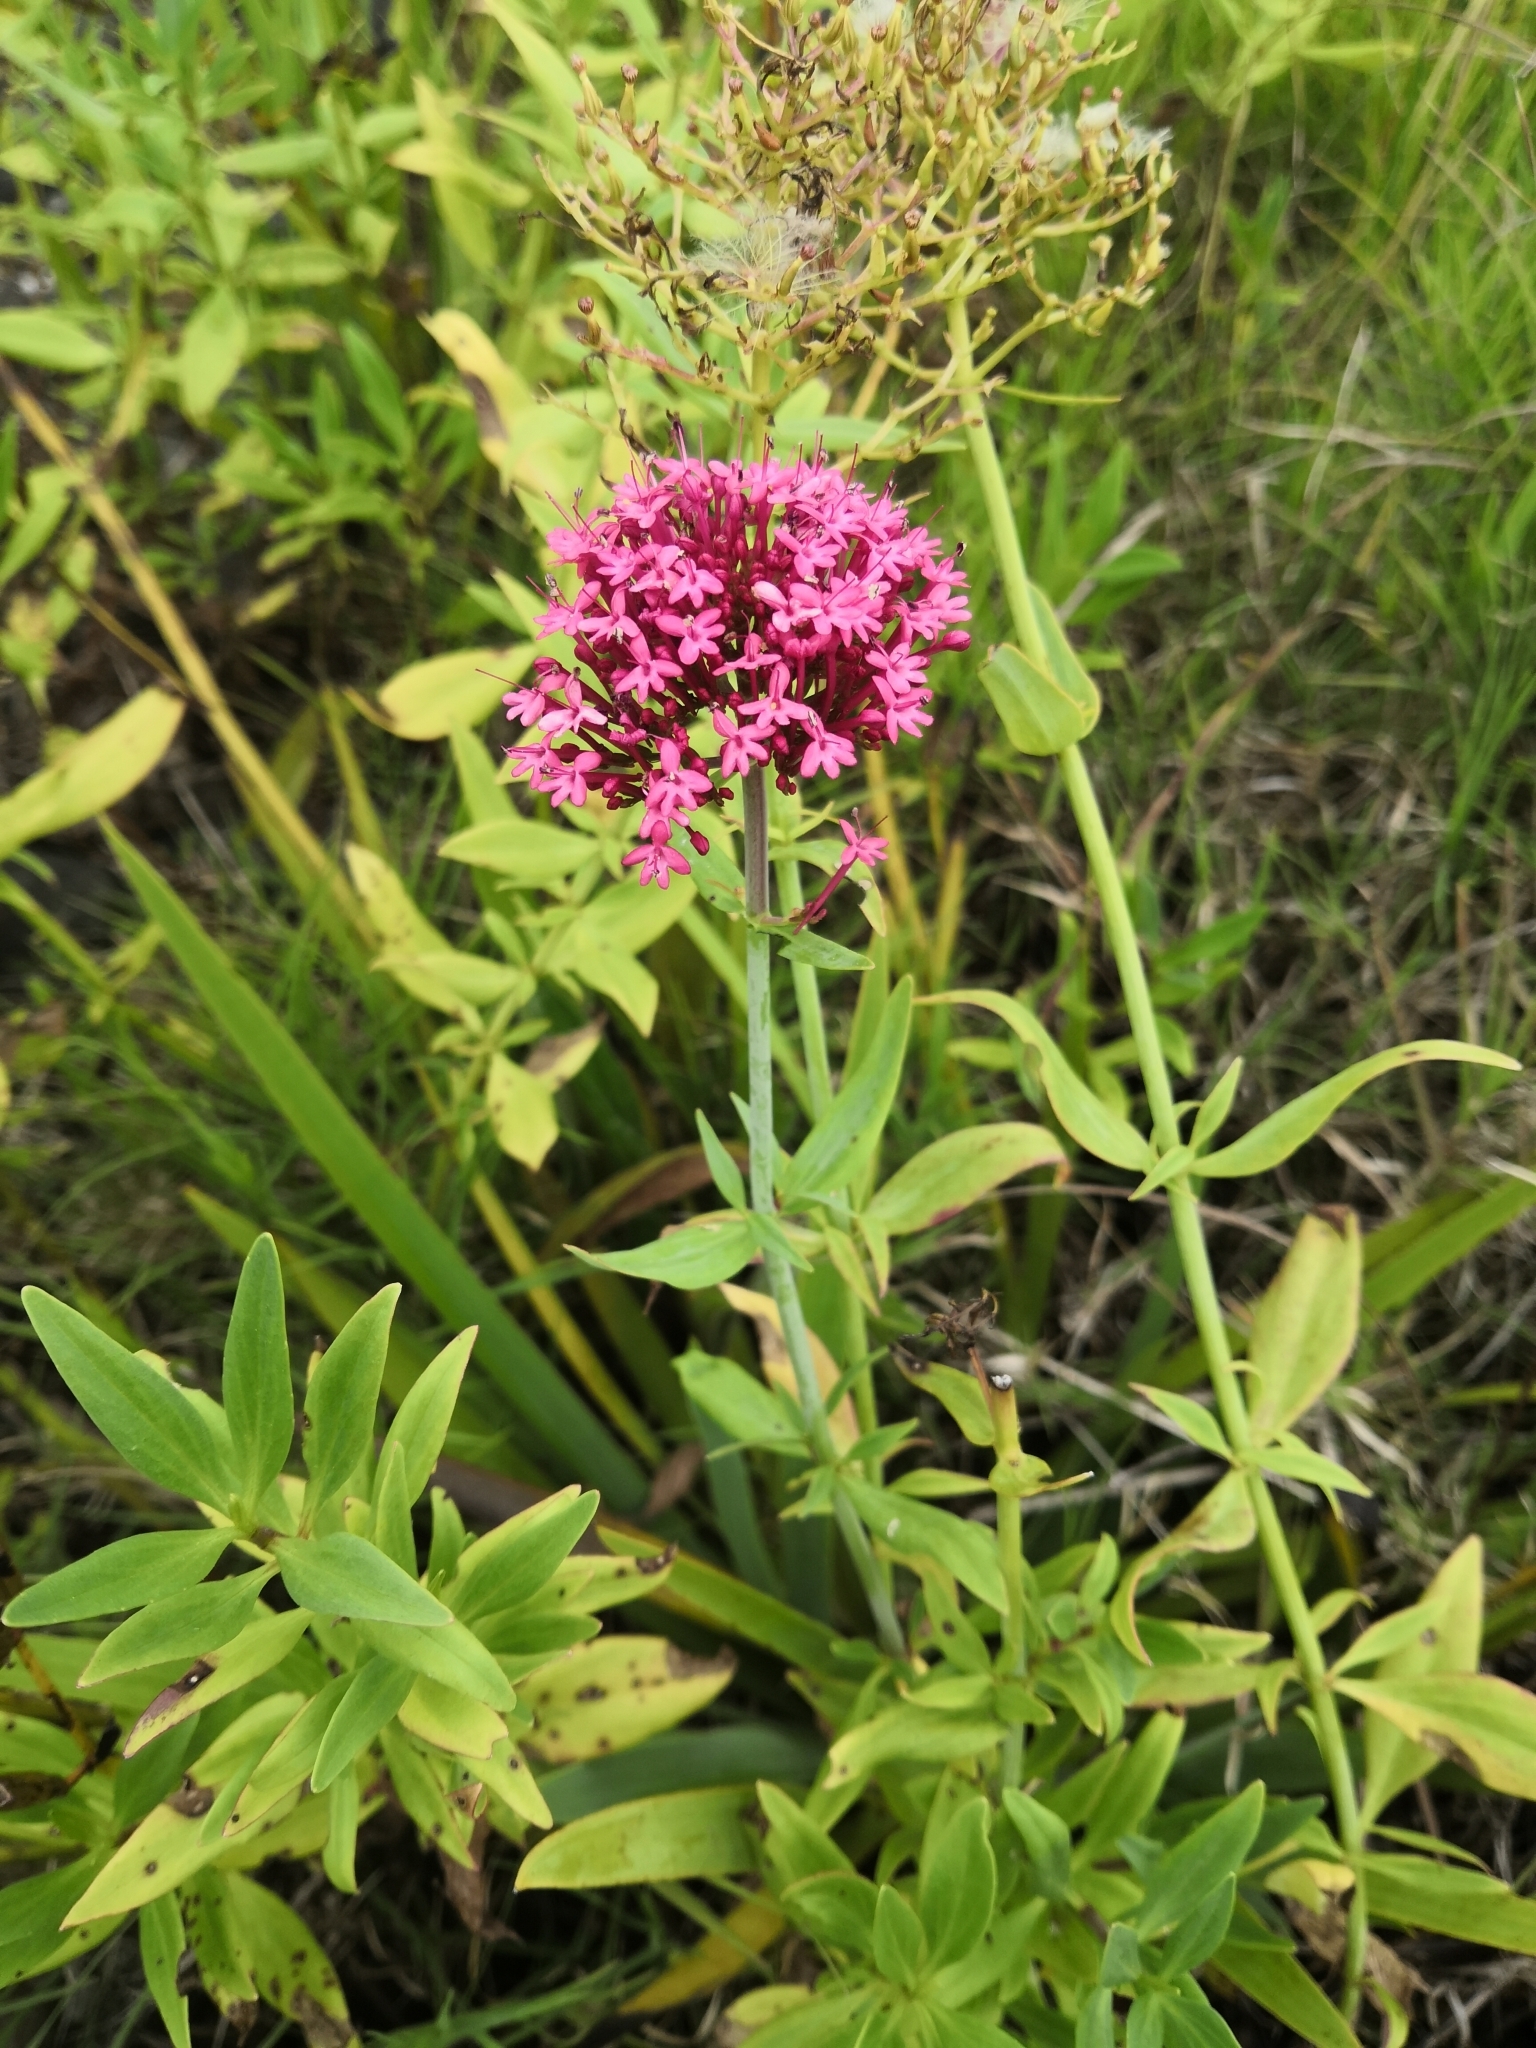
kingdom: Plantae
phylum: Tracheophyta
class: Magnoliopsida
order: Dipsacales
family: Caprifoliaceae
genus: Centranthus
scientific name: Centranthus ruber
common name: Red valerian
